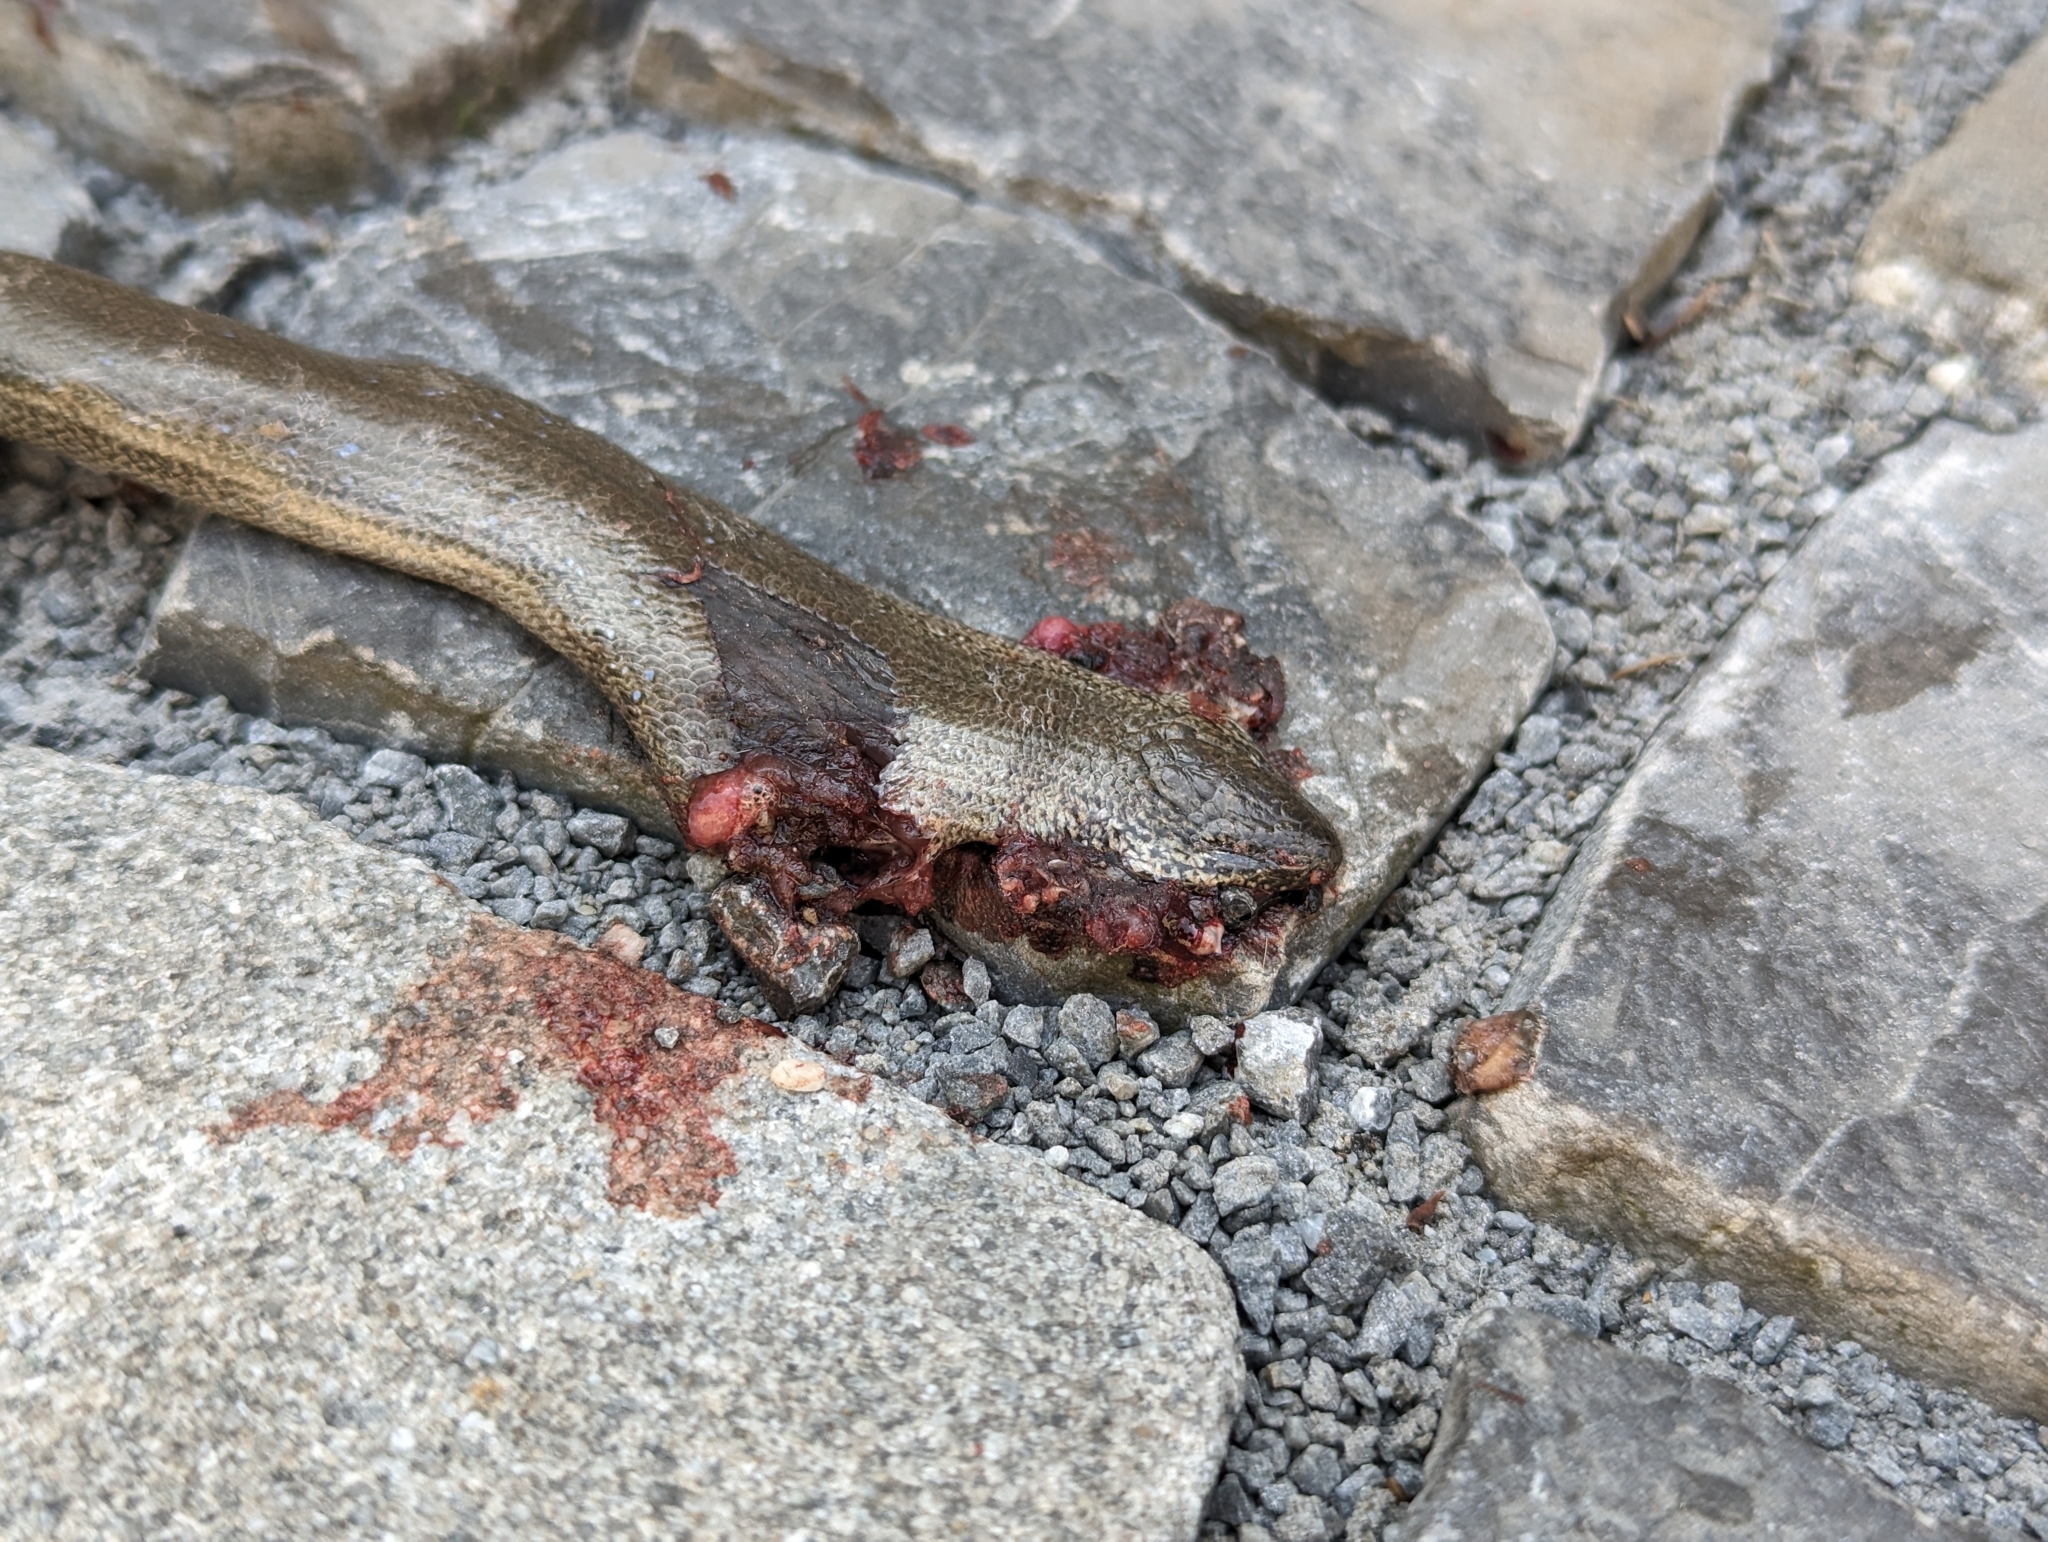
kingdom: Animalia
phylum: Chordata
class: Squamata
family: Anguidae
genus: Anguis
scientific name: Anguis fragilis
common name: Slow worm
